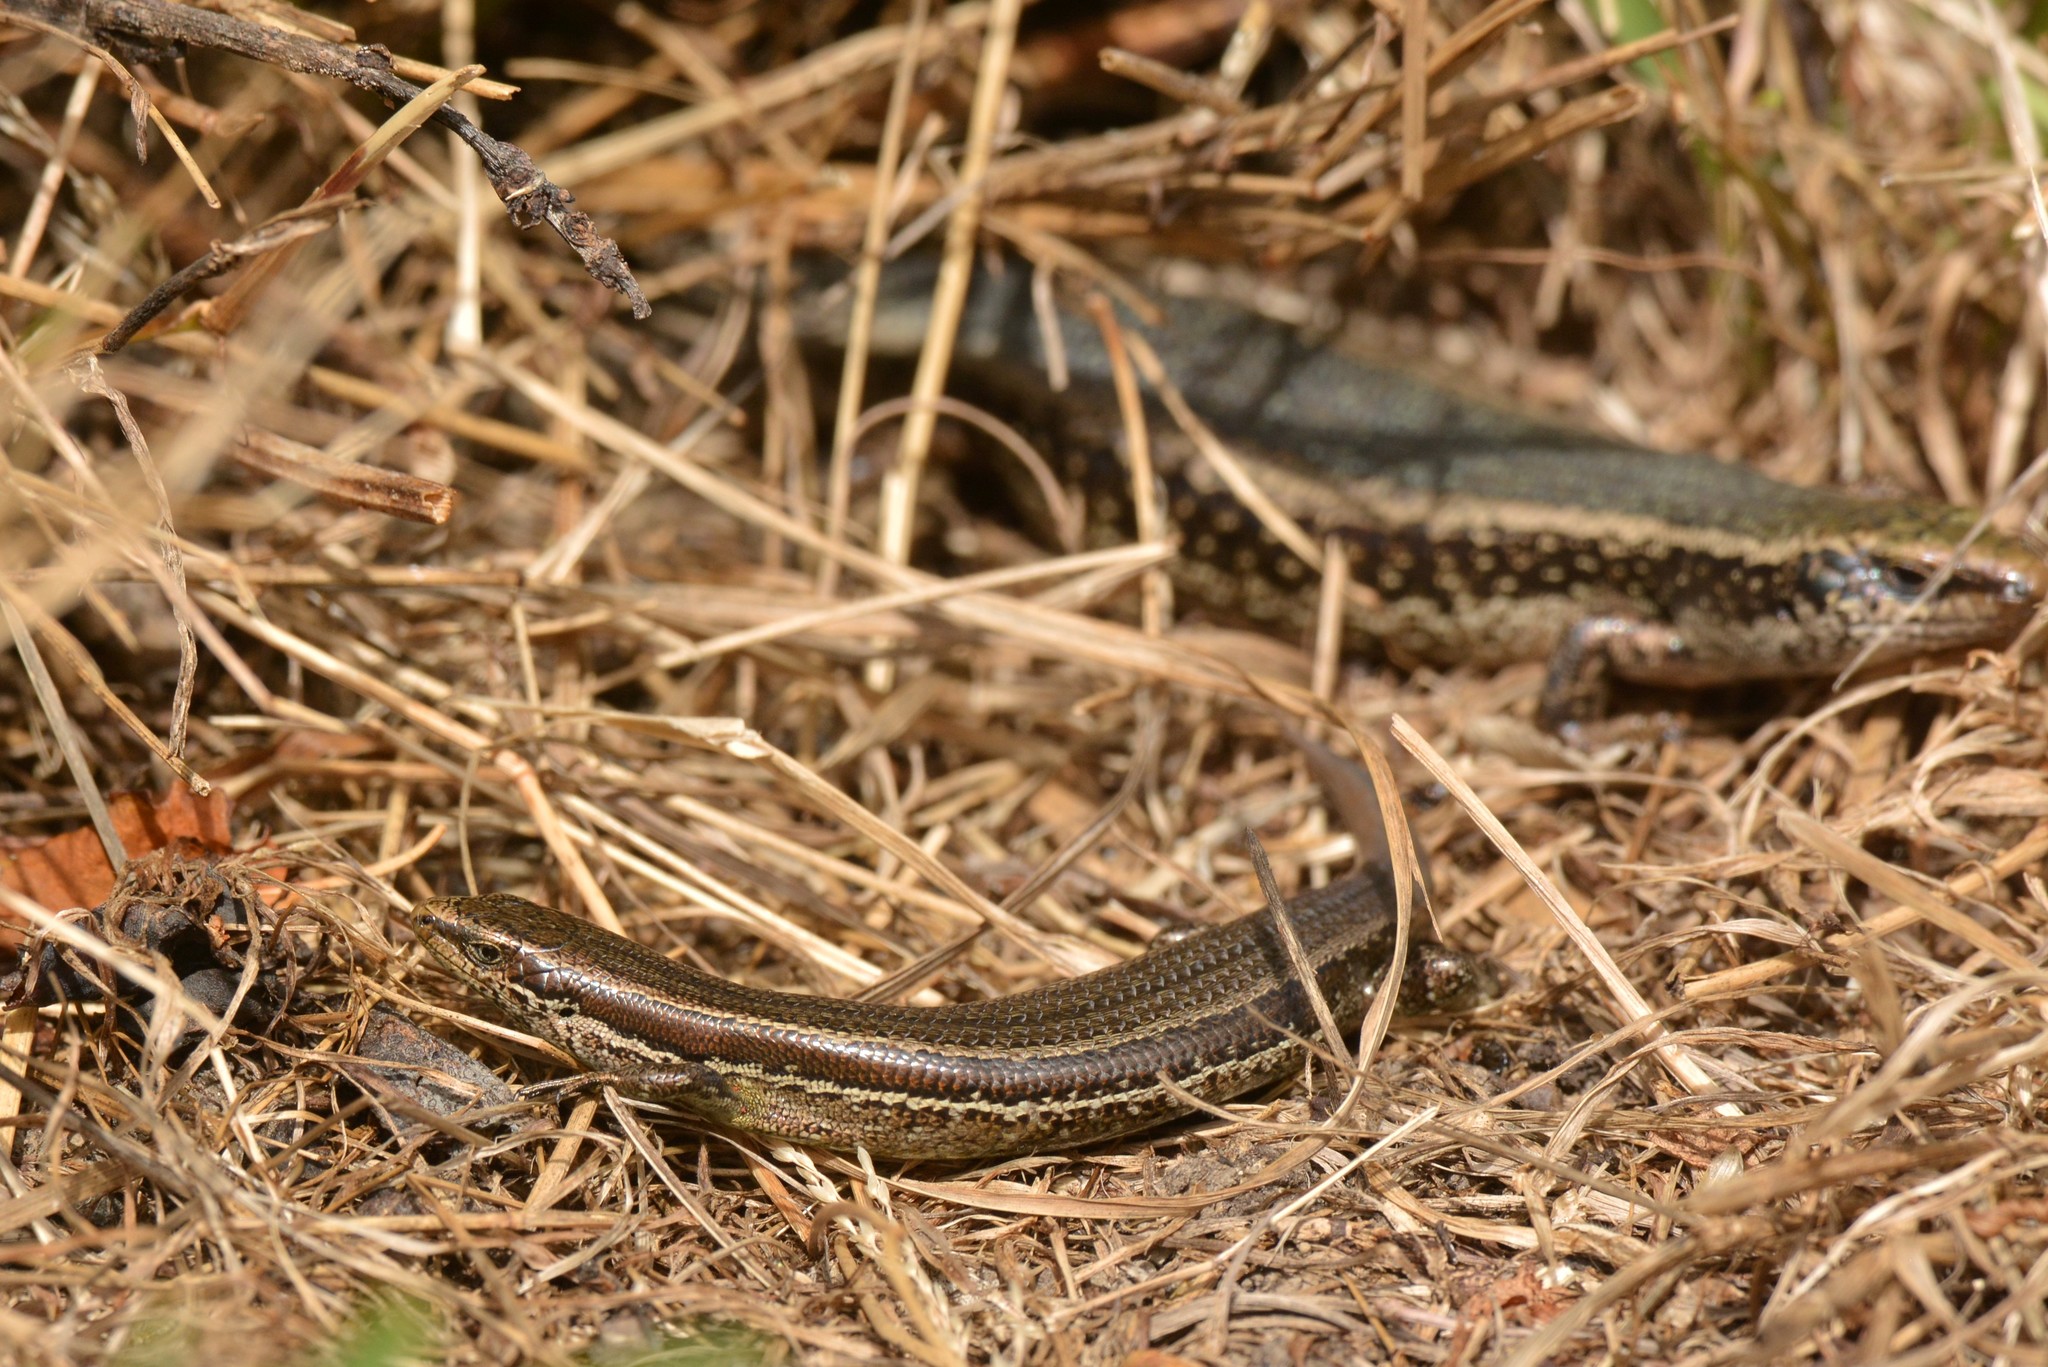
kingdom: Animalia
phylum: Chordata
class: Squamata
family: Scincidae
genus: Oligosoma
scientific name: Oligosoma polychroma
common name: Common new zealand skink
